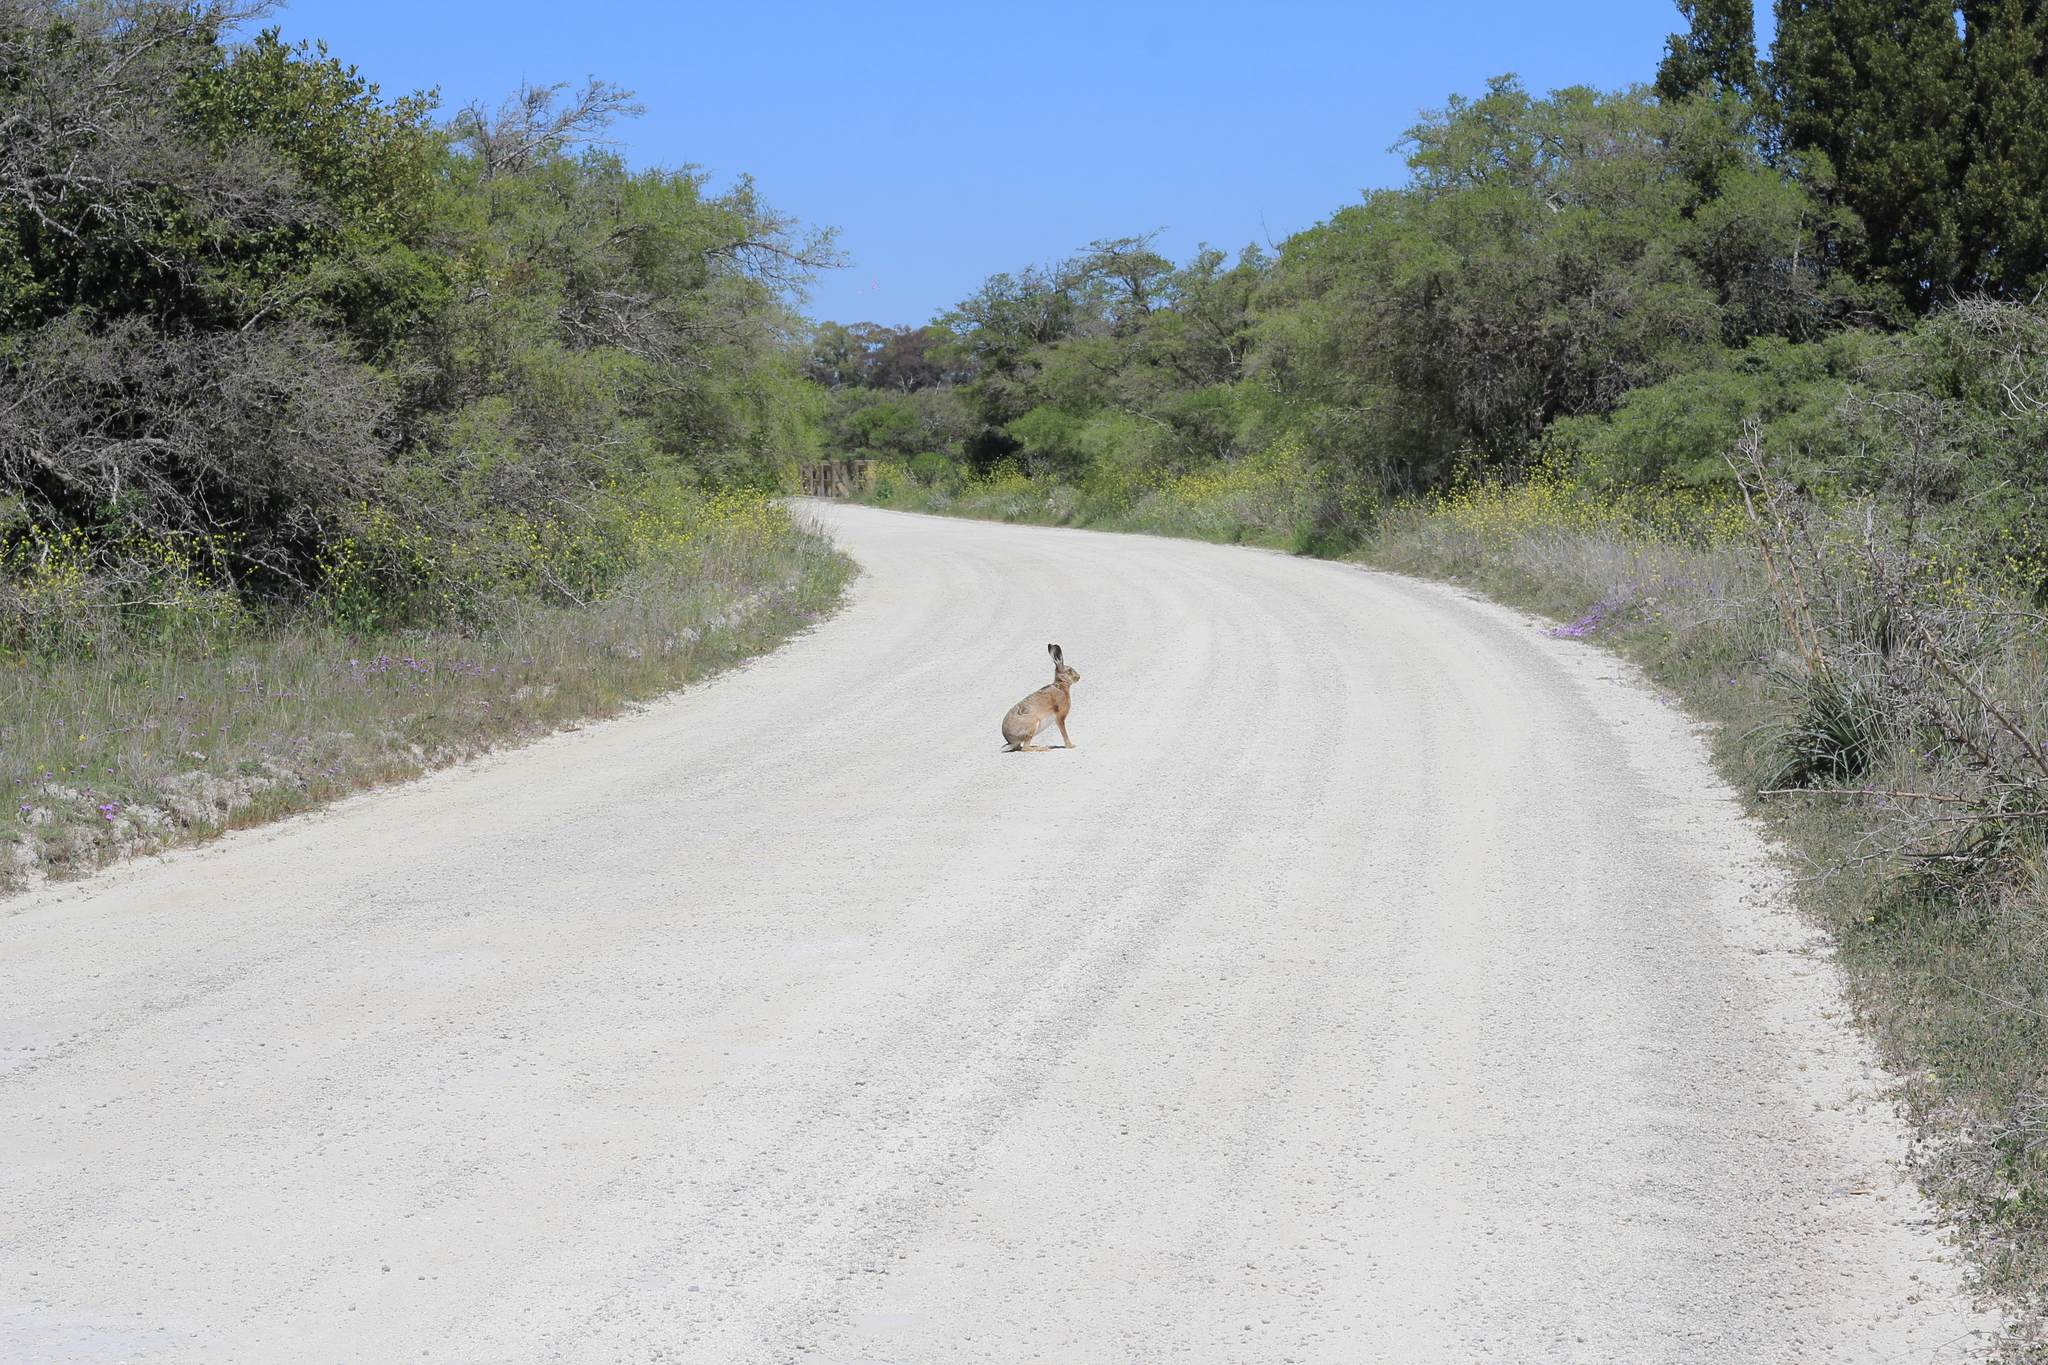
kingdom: Animalia
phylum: Chordata
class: Mammalia
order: Lagomorpha
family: Leporidae
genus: Lepus
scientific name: Lepus europaeus
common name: European hare
